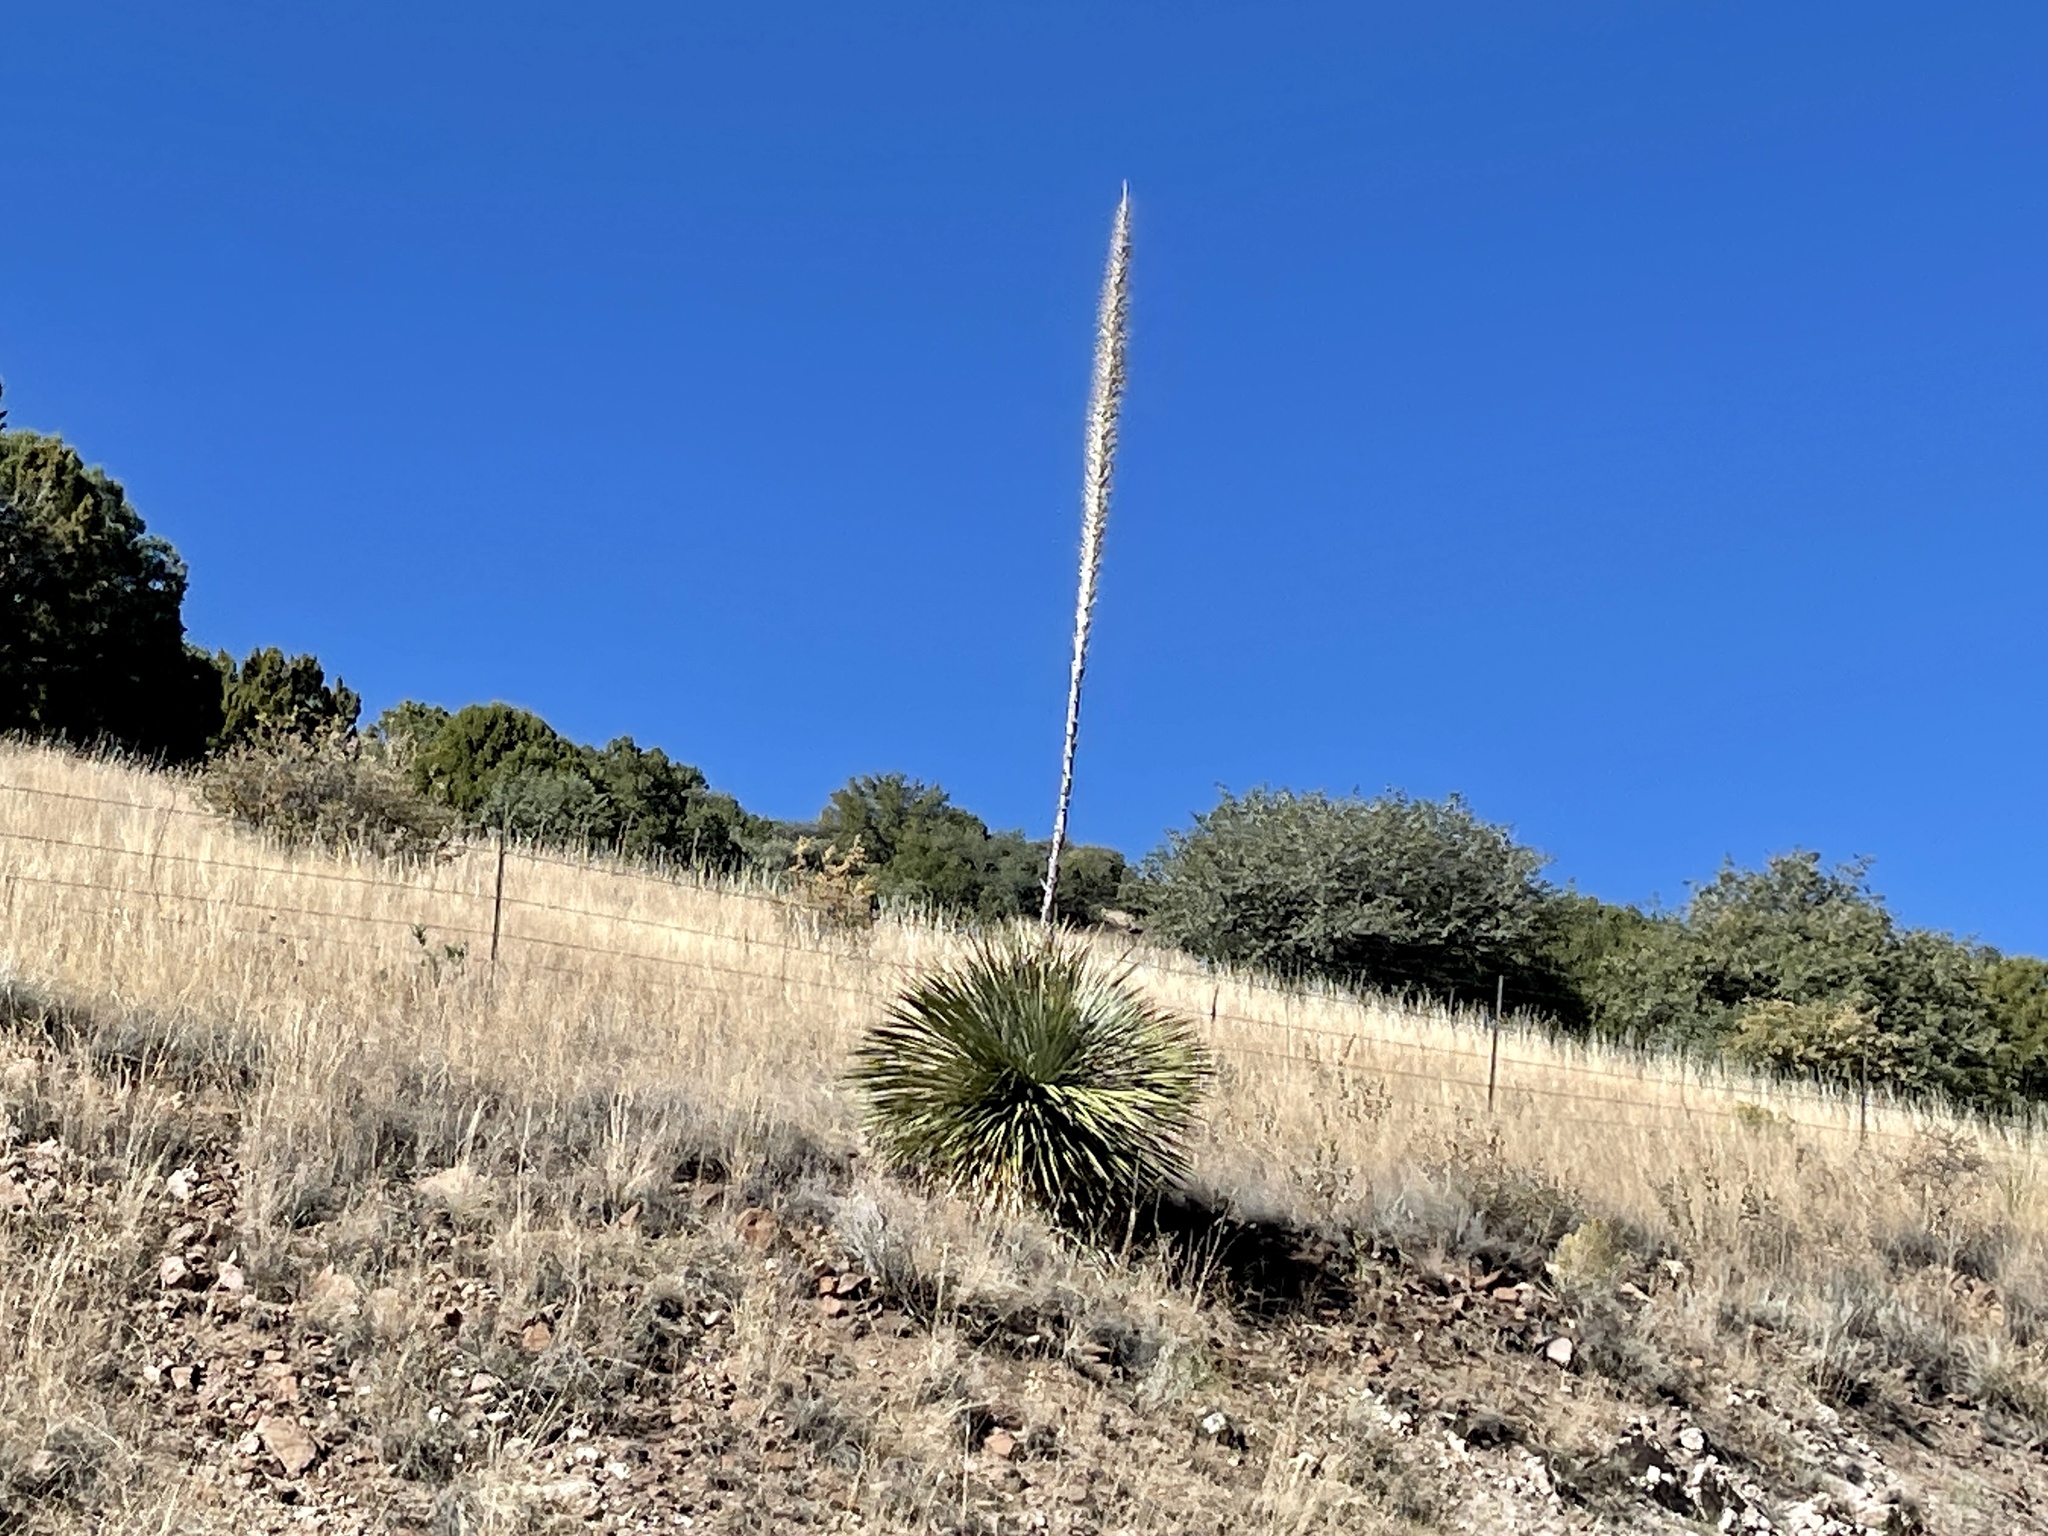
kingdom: Plantae
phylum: Tracheophyta
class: Liliopsida
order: Asparagales
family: Asparagaceae
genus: Dasylirion
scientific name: Dasylirion wheeleri
